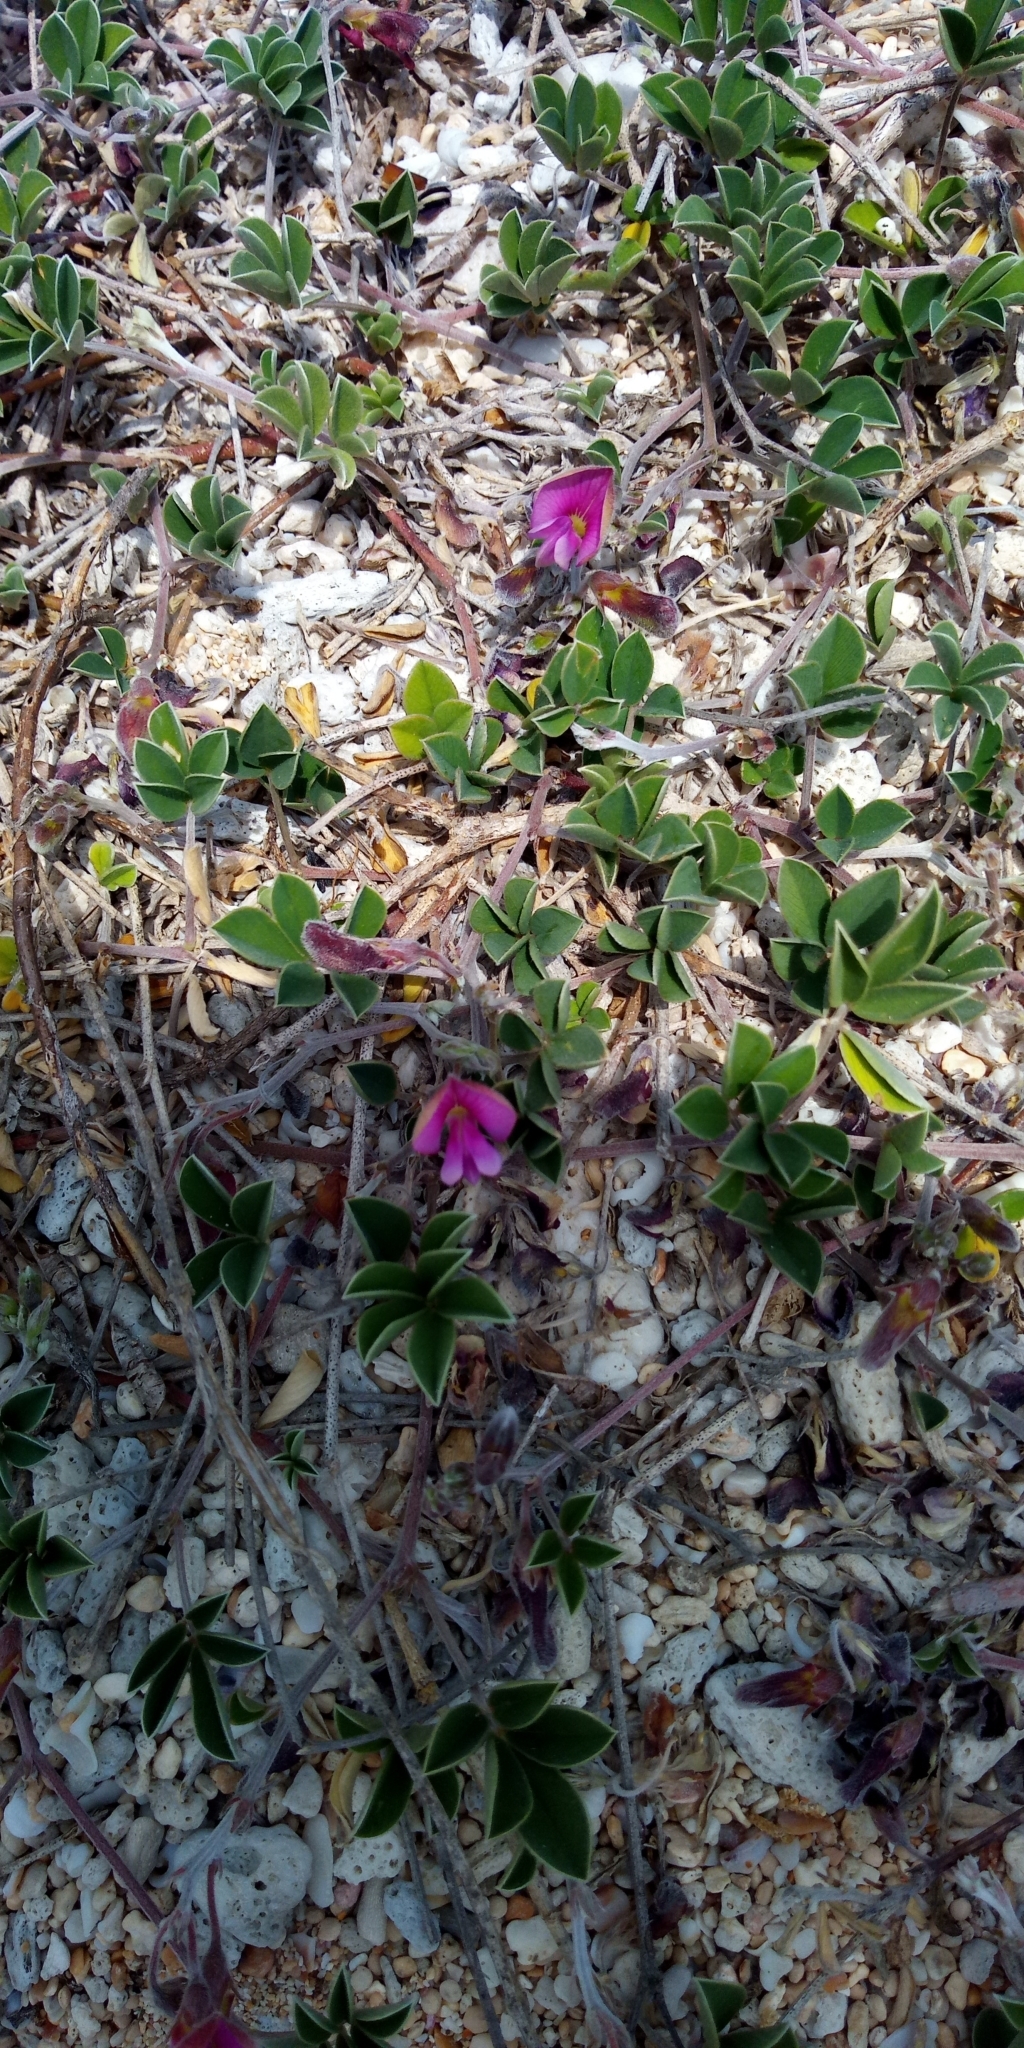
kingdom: Plantae
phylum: Tracheophyta
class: Magnoliopsida
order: Fabales
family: Fabaceae
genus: Tephrosia
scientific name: Tephrosia obovata
